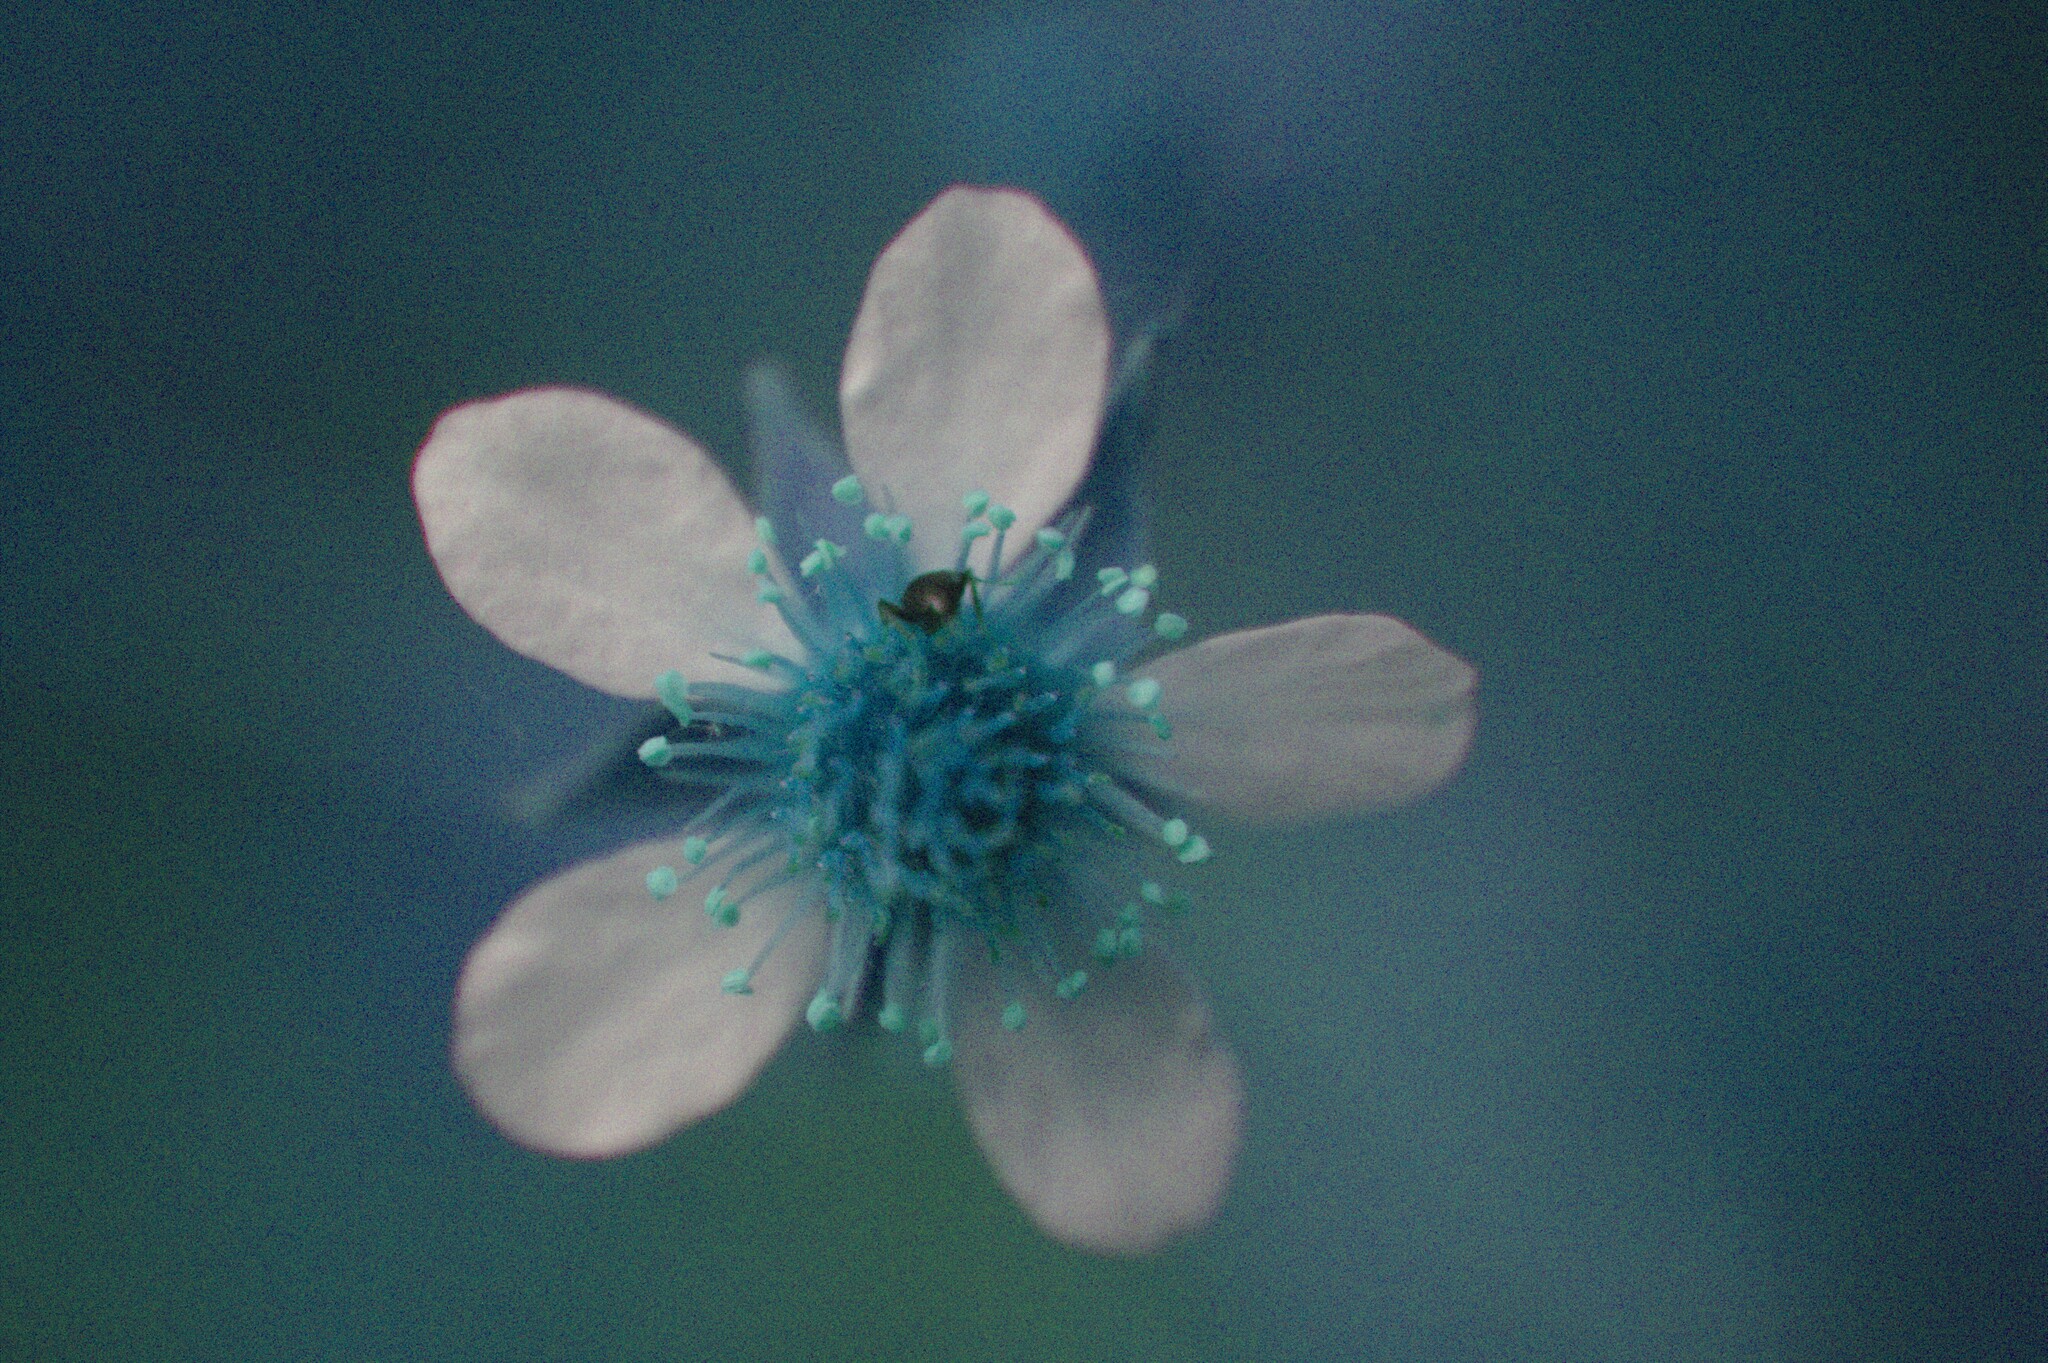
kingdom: Plantae
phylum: Tracheophyta
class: Magnoliopsida
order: Rosales
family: Rosaceae
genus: Geum
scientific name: Geum canadense
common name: White avens
